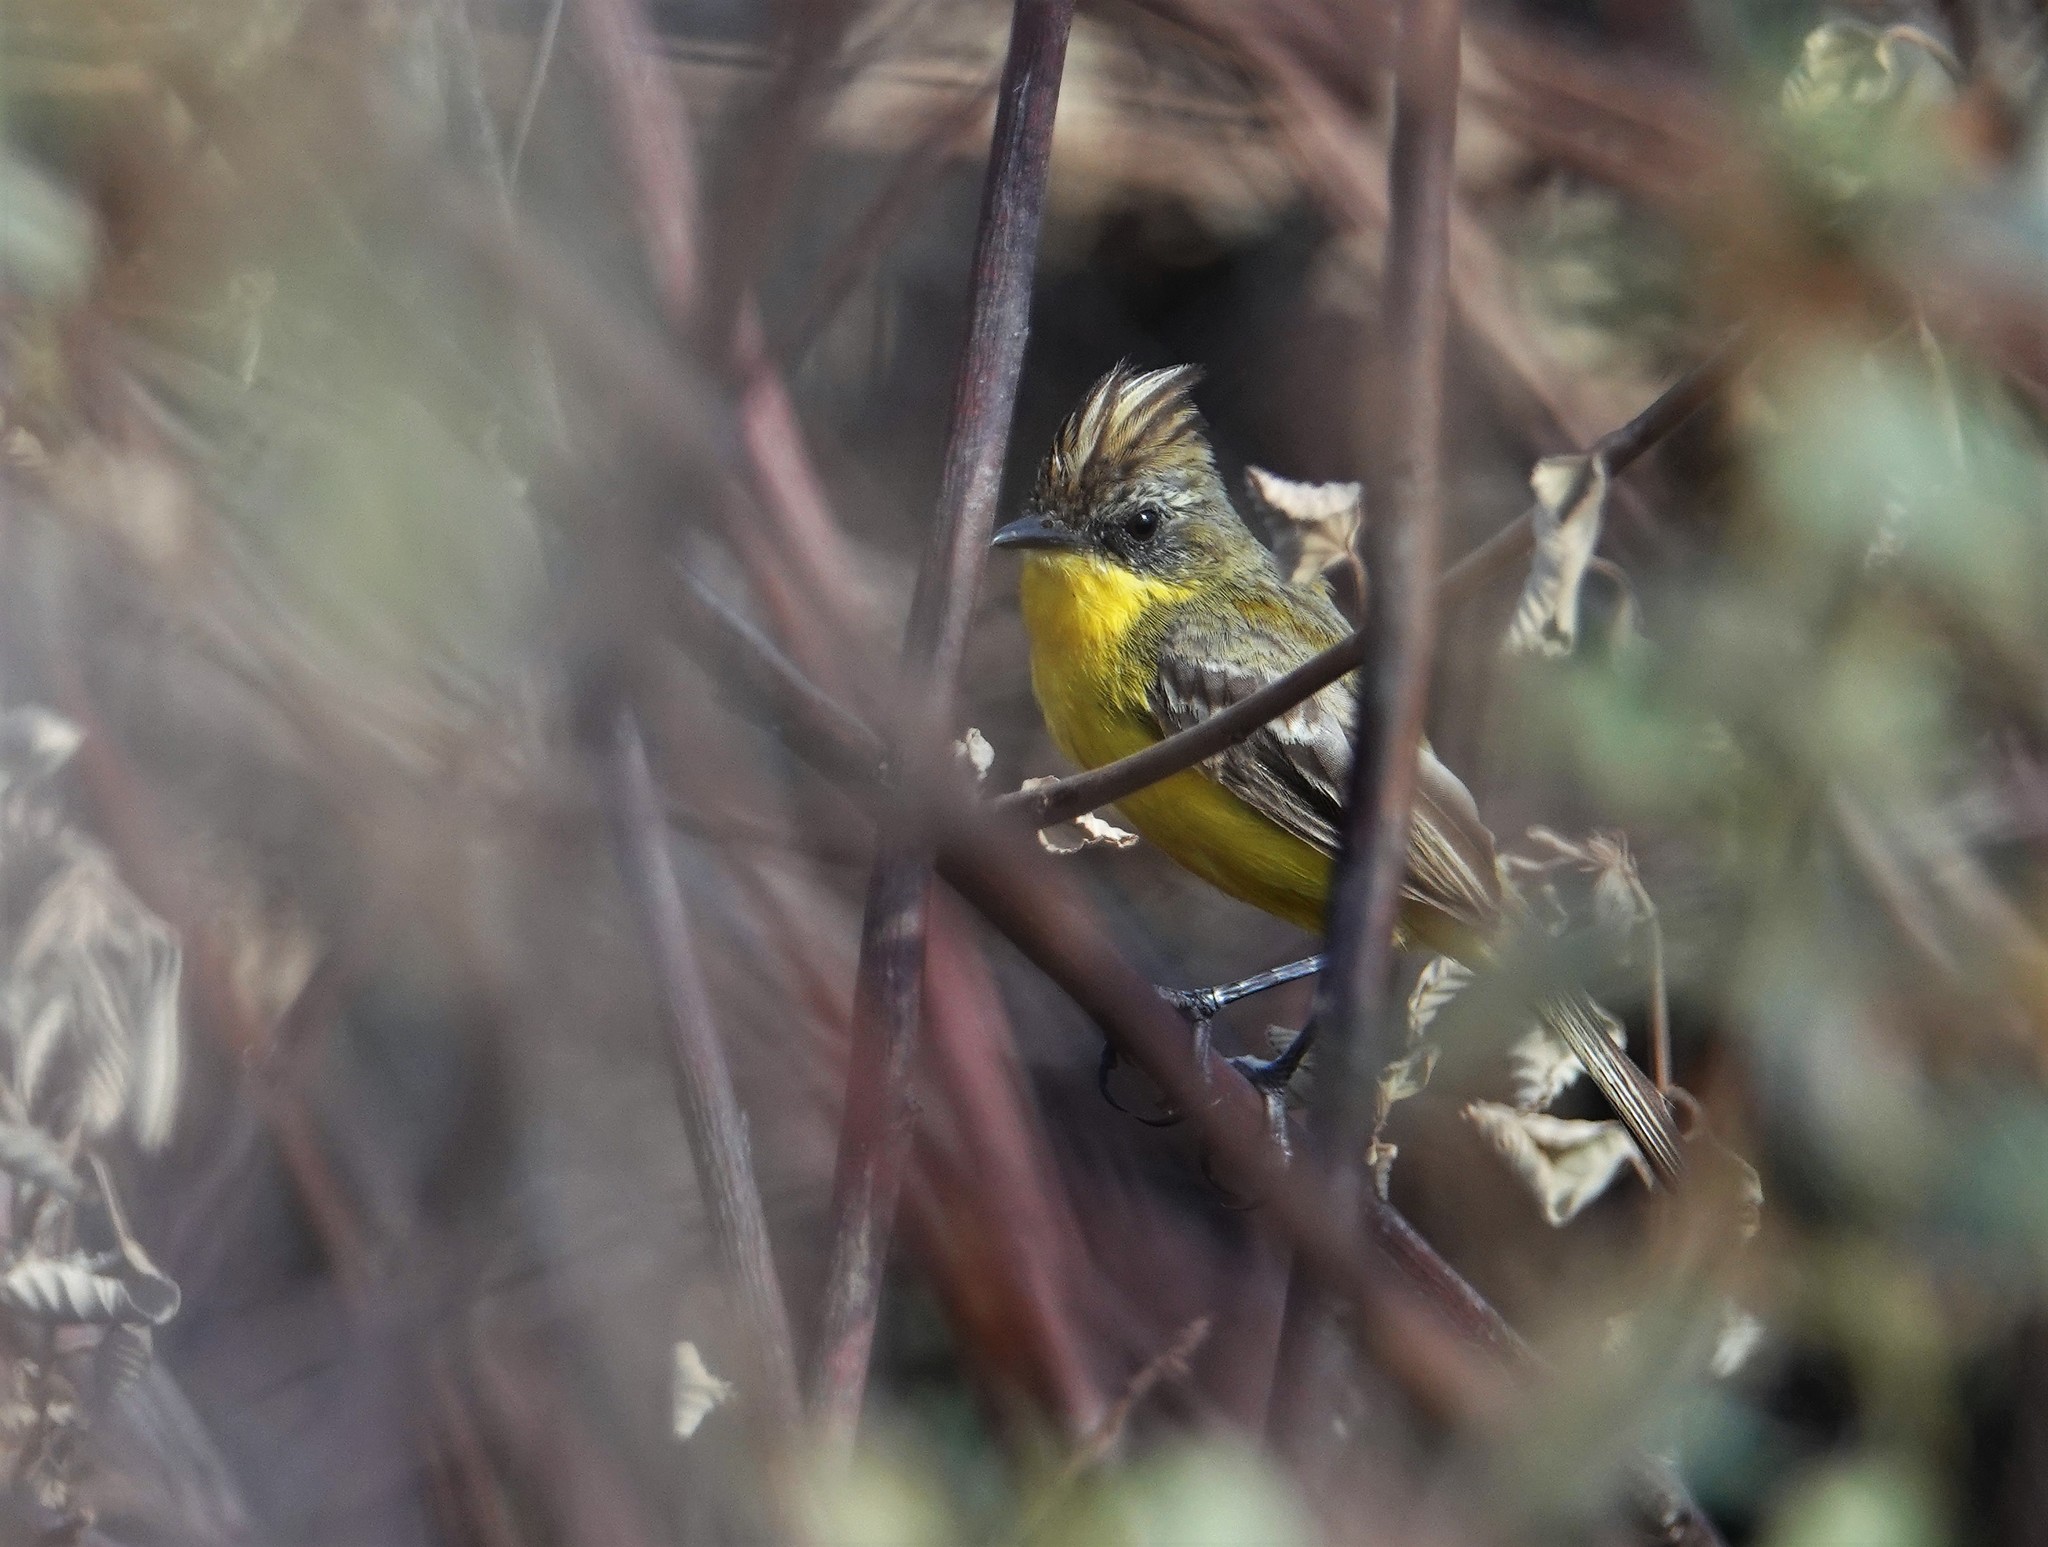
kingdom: Animalia
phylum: Chordata
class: Aves
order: Passeriformes
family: Tyrannidae
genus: Pseudocolopteryx
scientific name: Pseudocolopteryx sclateri
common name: Crested doradito
